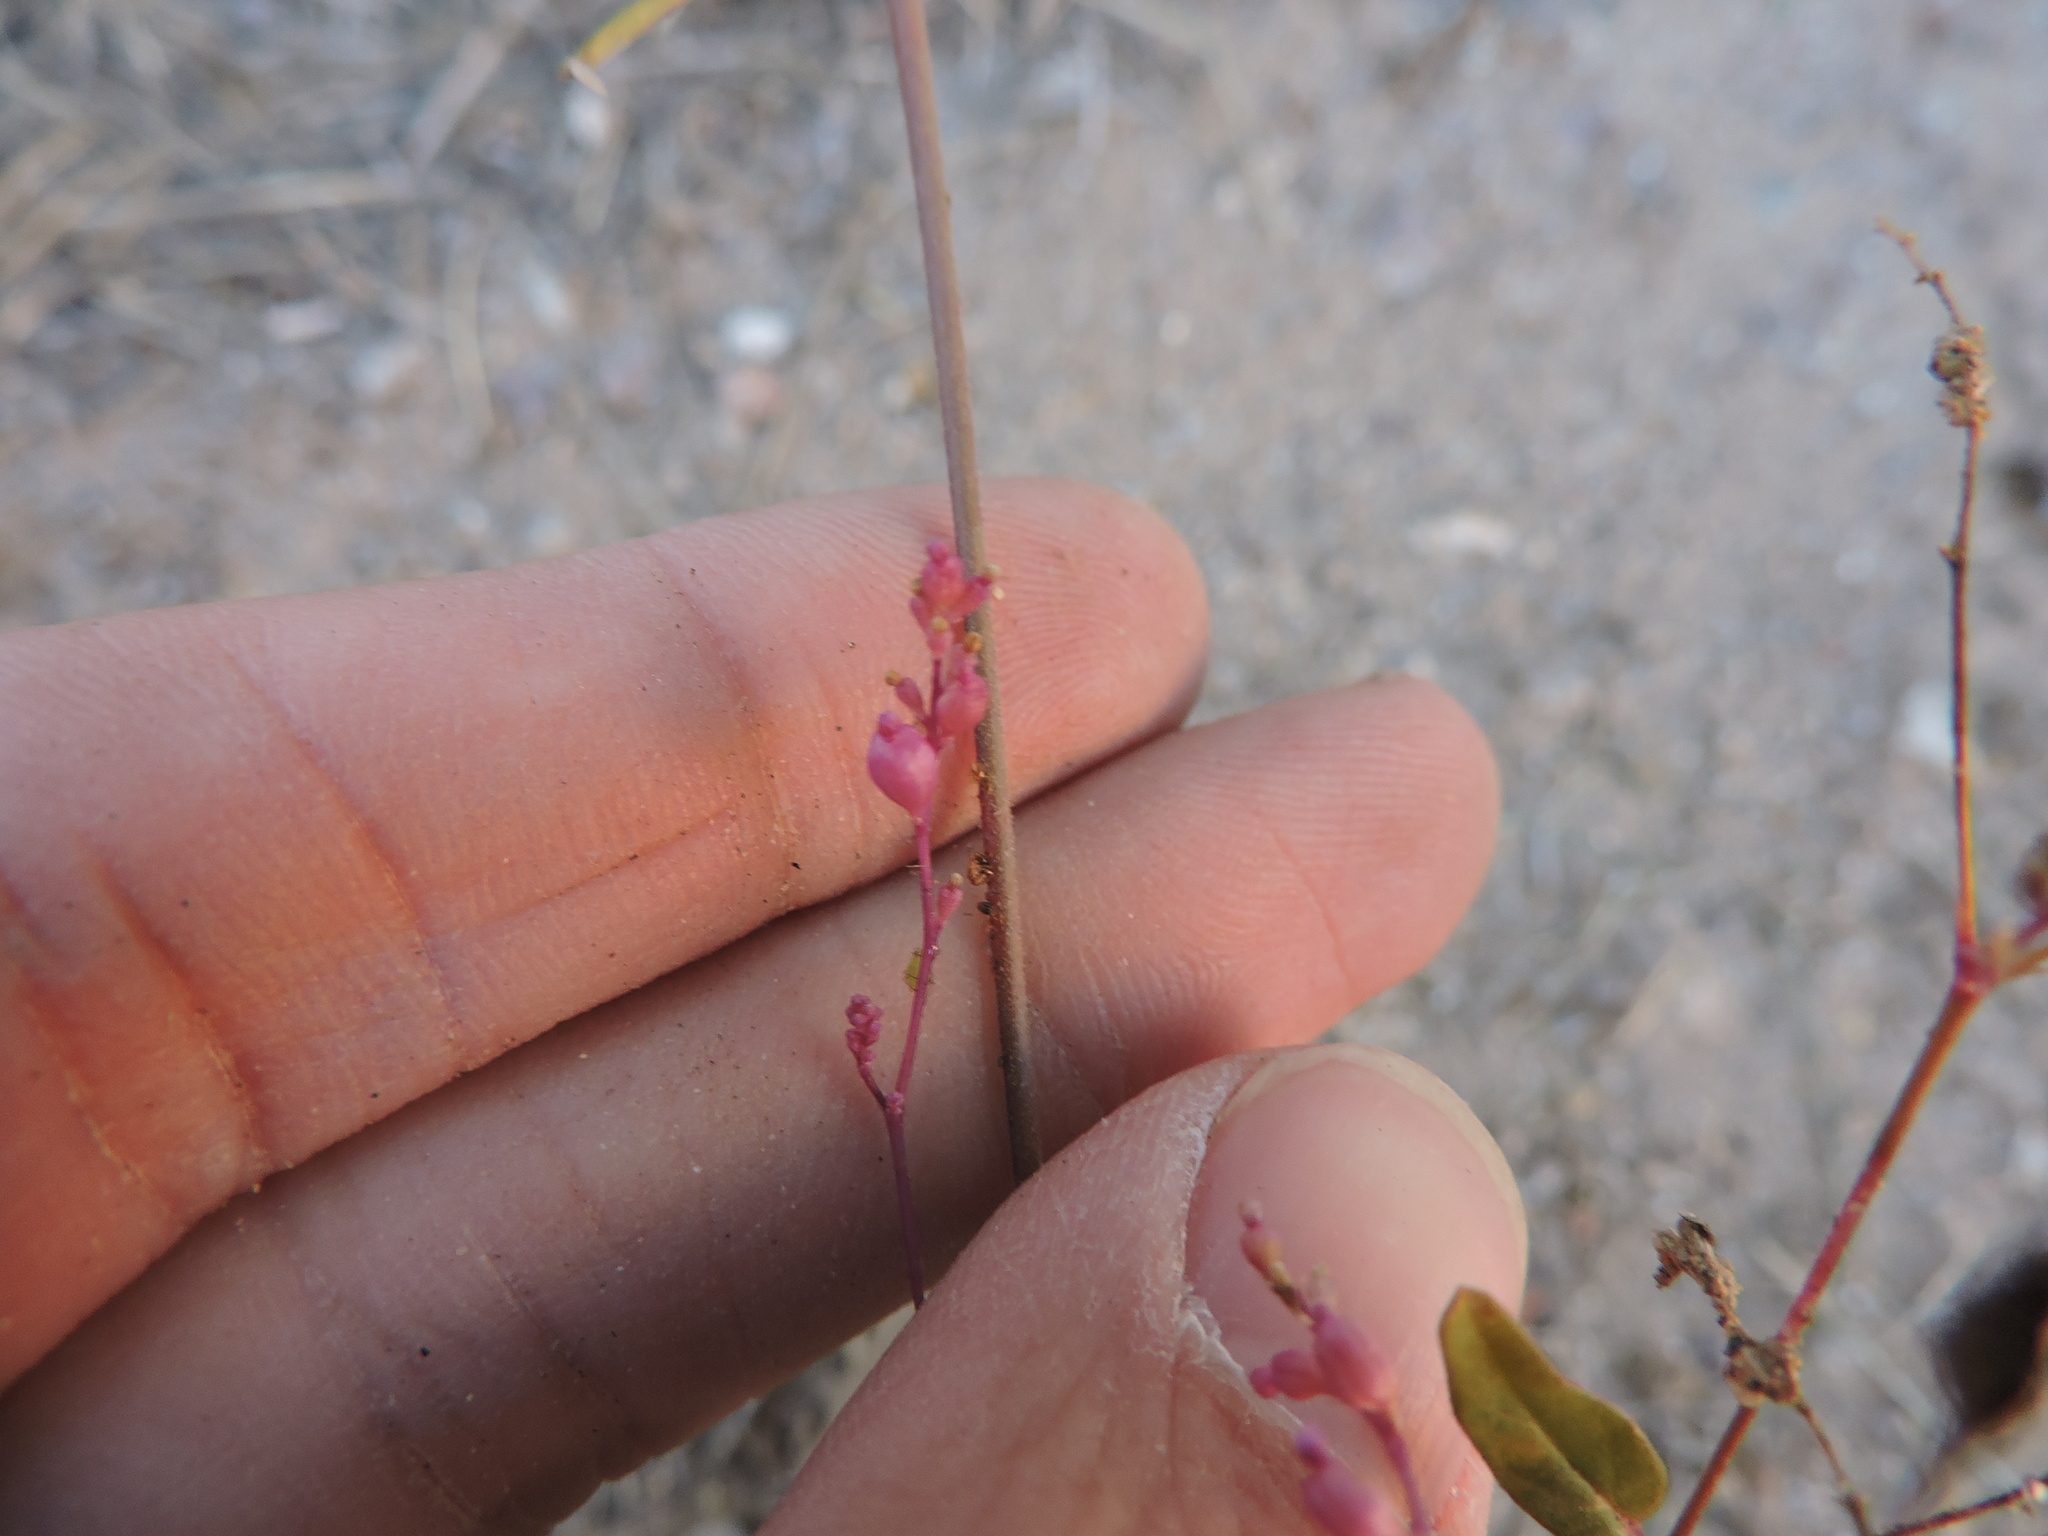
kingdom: Plantae
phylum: Tracheophyta
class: Magnoliopsida
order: Caryophyllales
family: Nyctaginaceae
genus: Boerhavia
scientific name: Boerhavia coulteri
